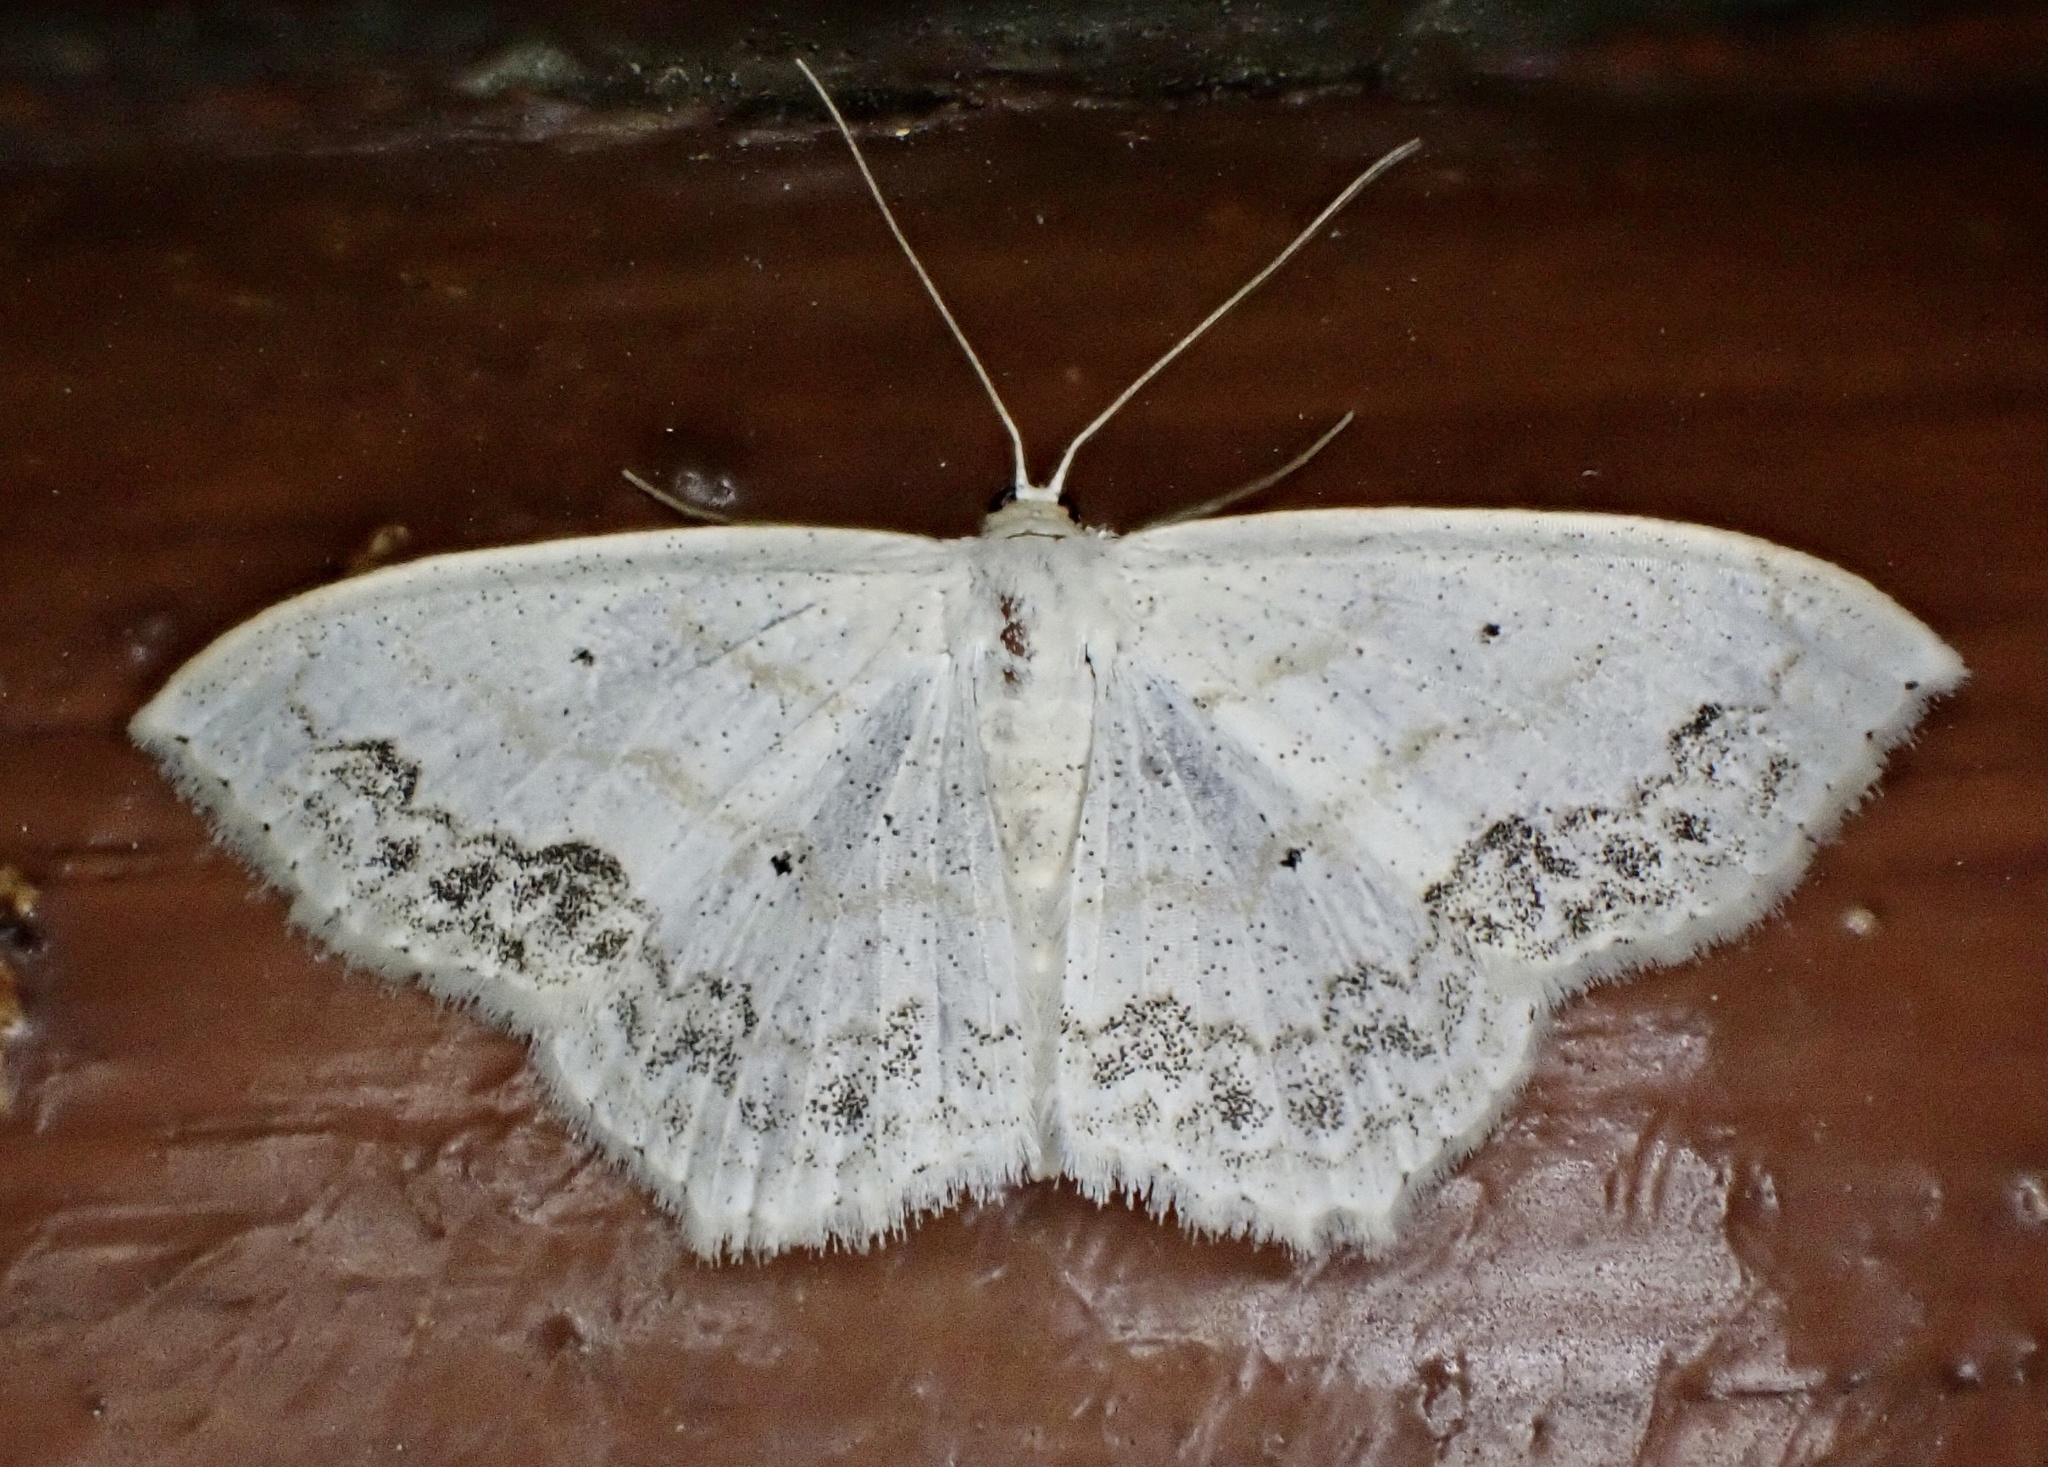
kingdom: Animalia
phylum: Arthropoda
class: Insecta
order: Lepidoptera
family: Geometridae
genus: Scopula
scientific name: Scopula limboundata
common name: Large lace border
